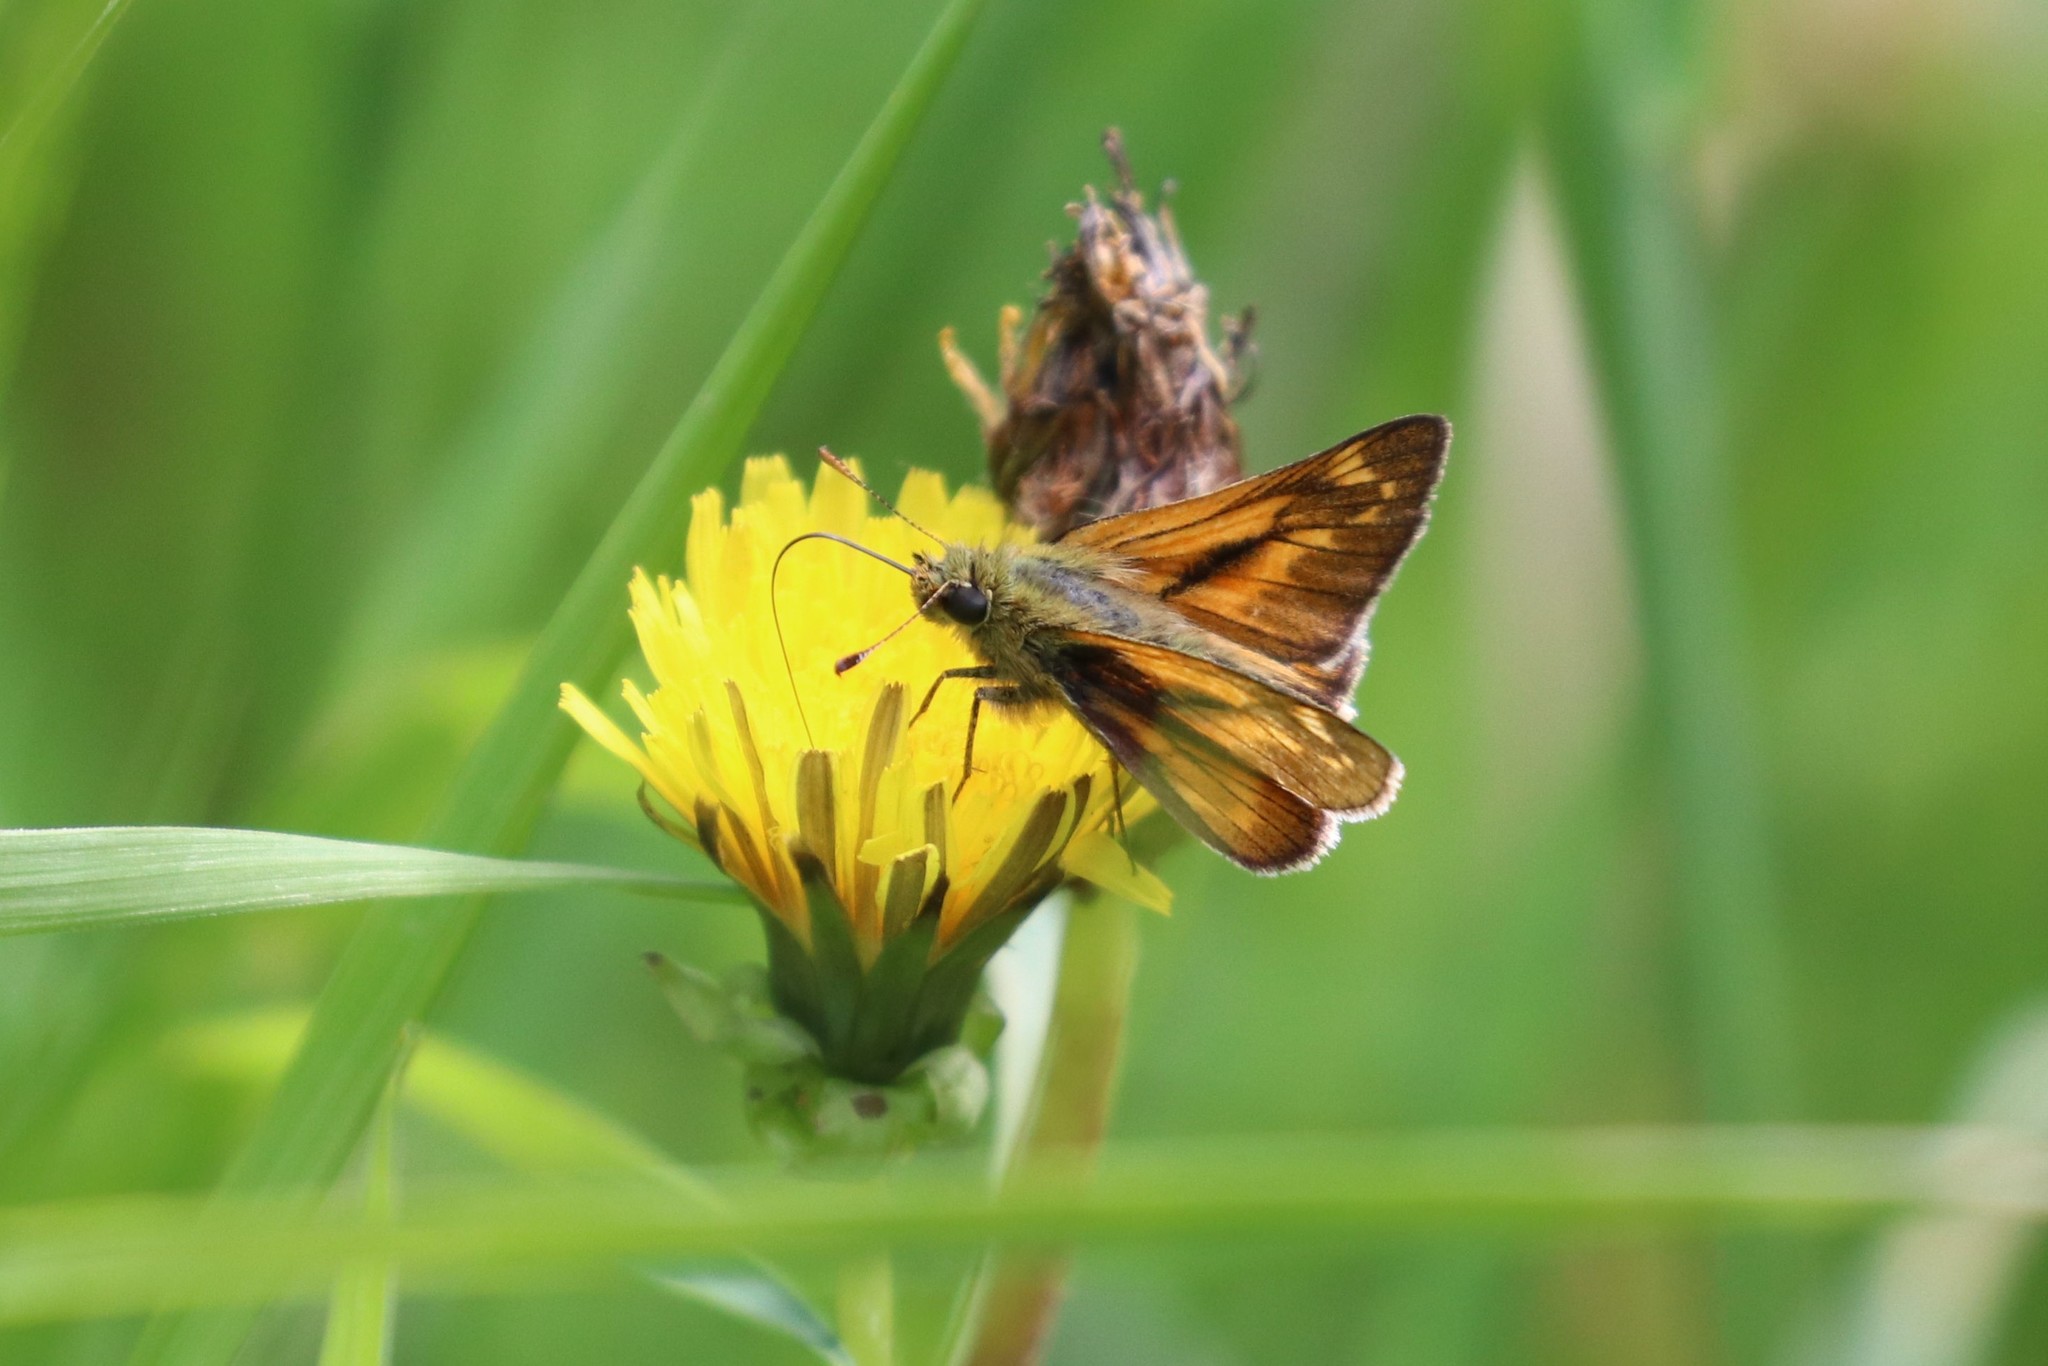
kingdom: Animalia
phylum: Arthropoda
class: Insecta
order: Lepidoptera
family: Hesperiidae
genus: Ochlodes
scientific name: Ochlodes venata
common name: Large skipper
